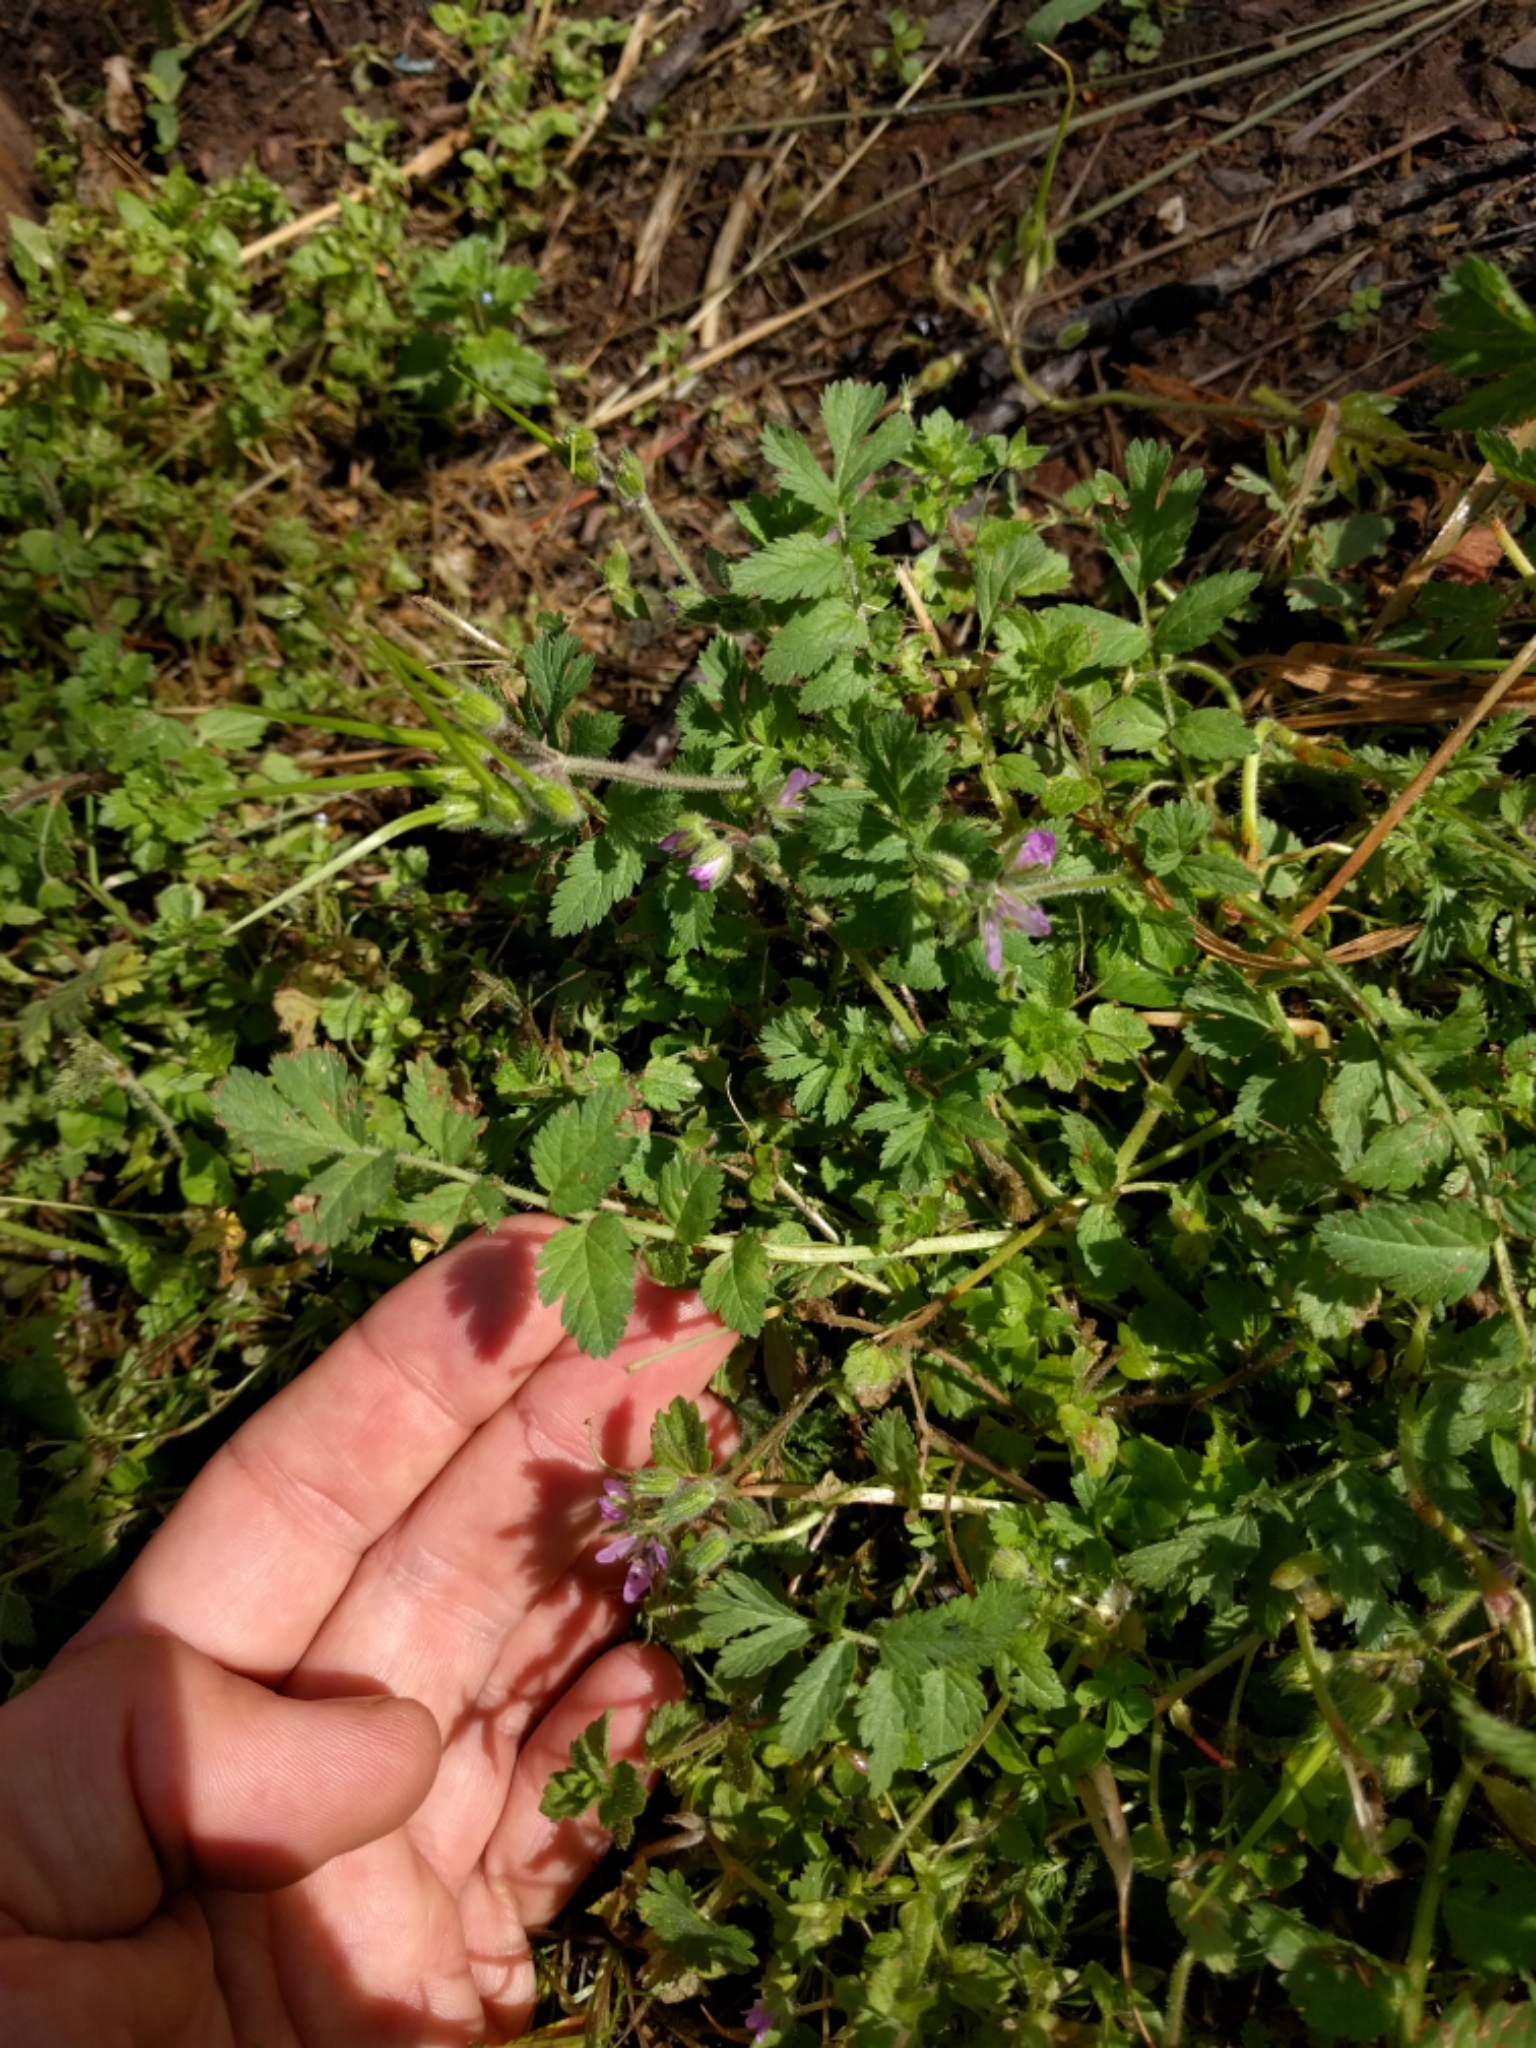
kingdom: Plantae
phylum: Tracheophyta
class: Magnoliopsida
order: Geraniales
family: Geraniaceae
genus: Erodium
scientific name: Erodium moschatum
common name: Musk stork's-bill
